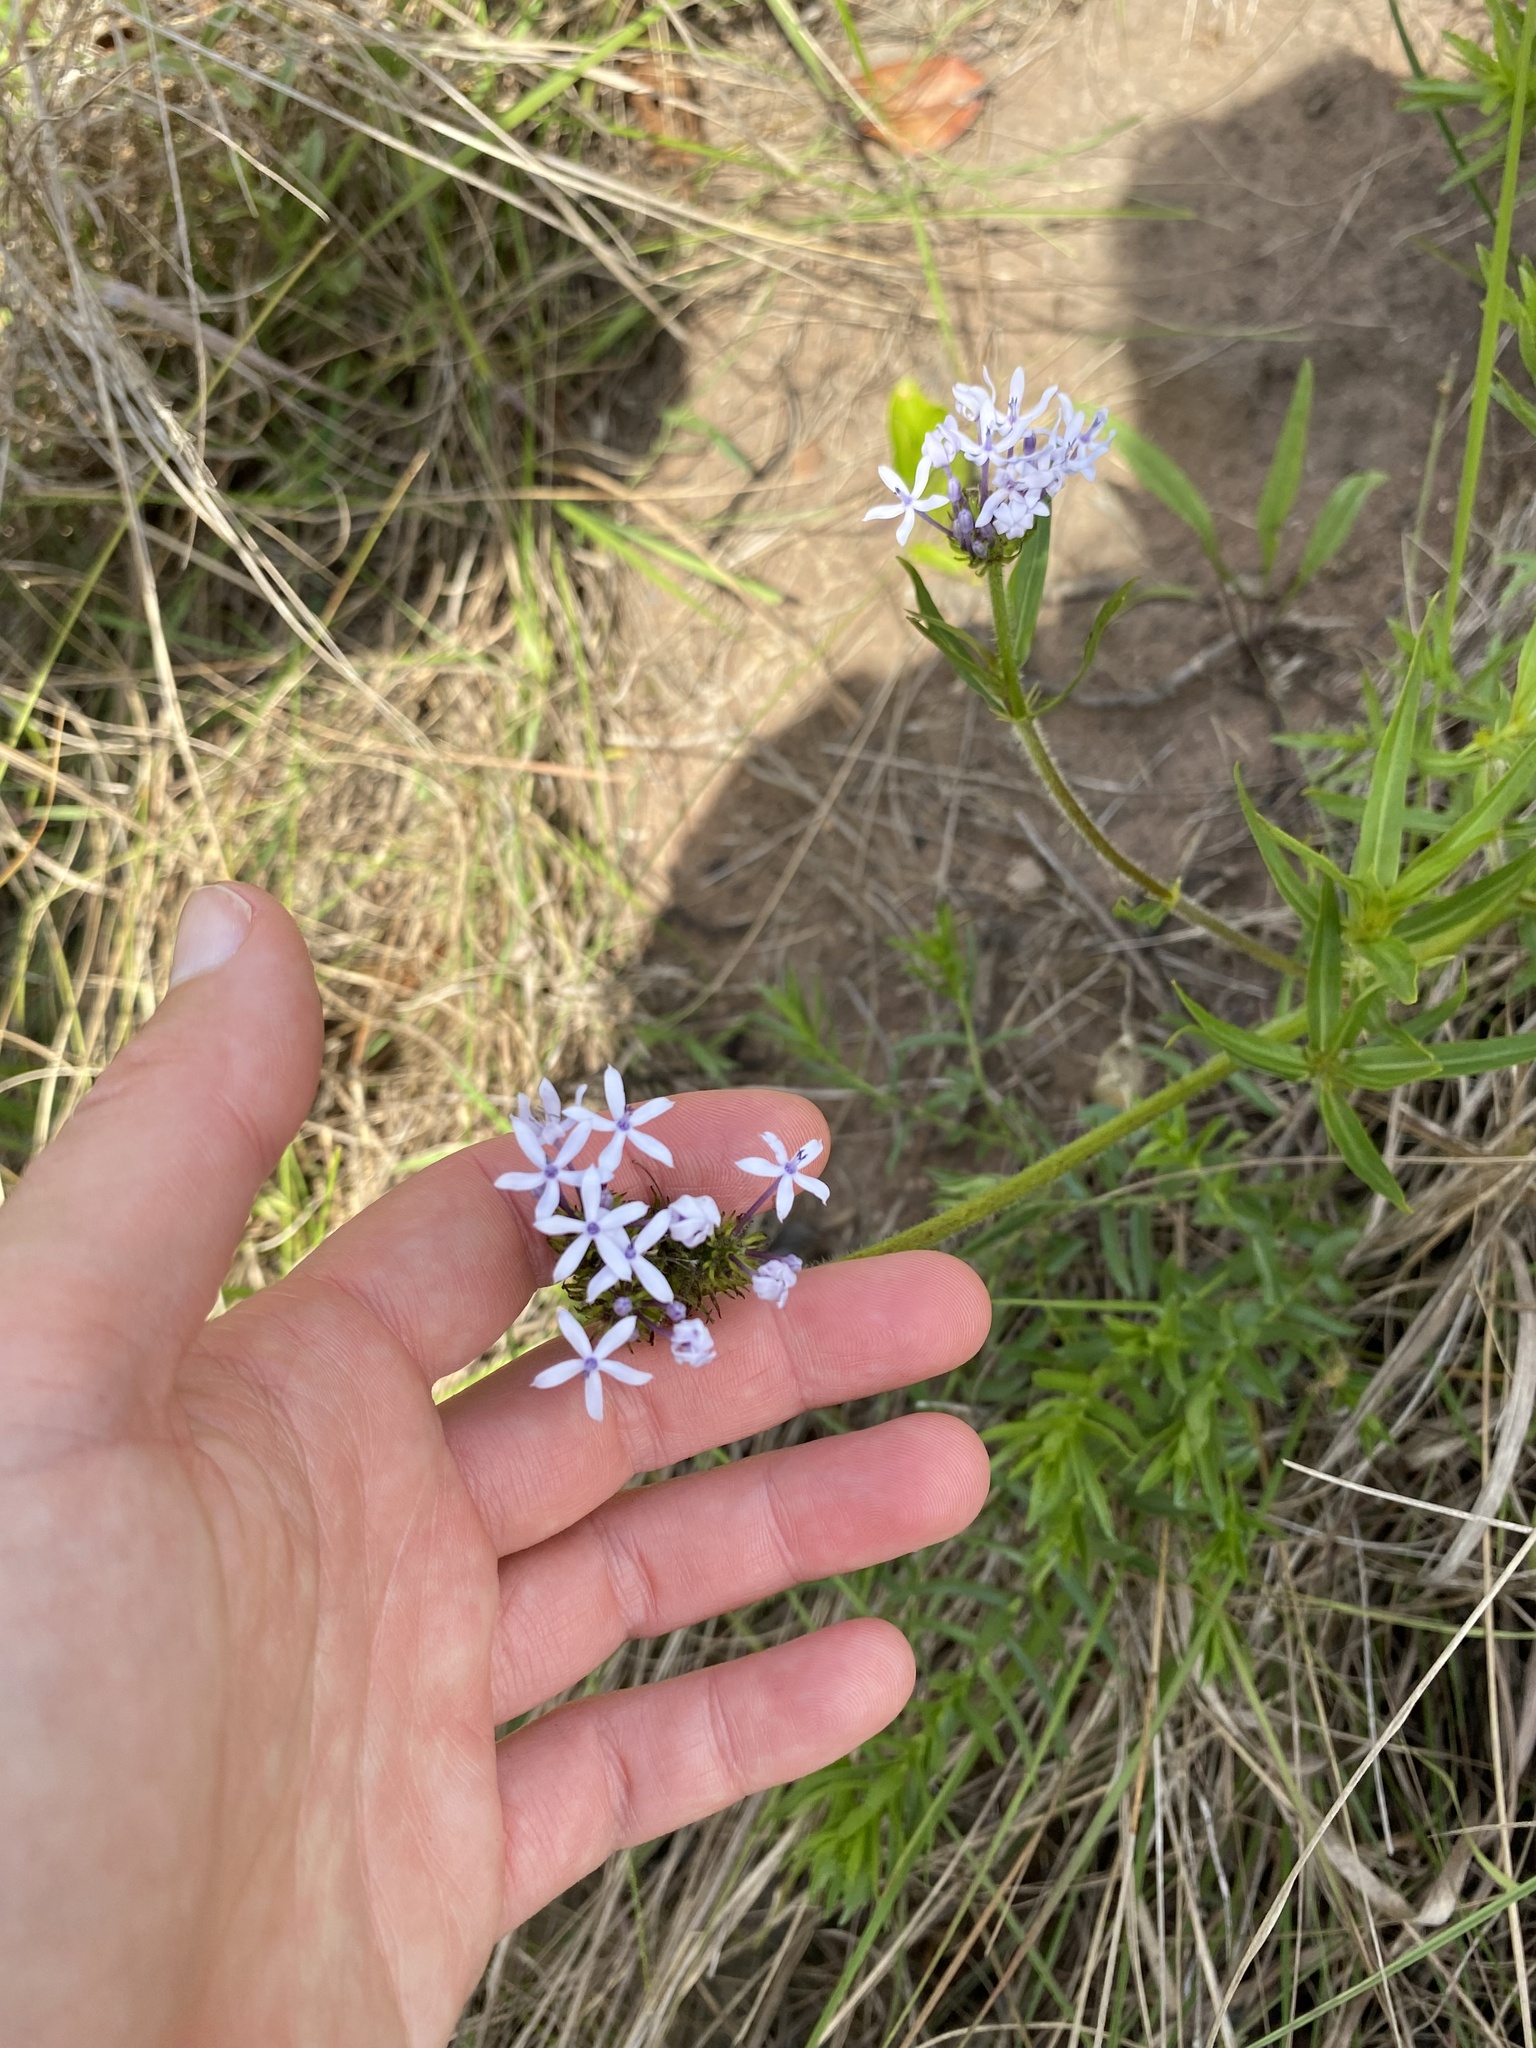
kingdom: Plantae
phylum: Tracheophyta
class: Magnoliopsida
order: Gentianales
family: Rubiaceae
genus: Pentanisia
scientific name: Pentanisia angustifolia
